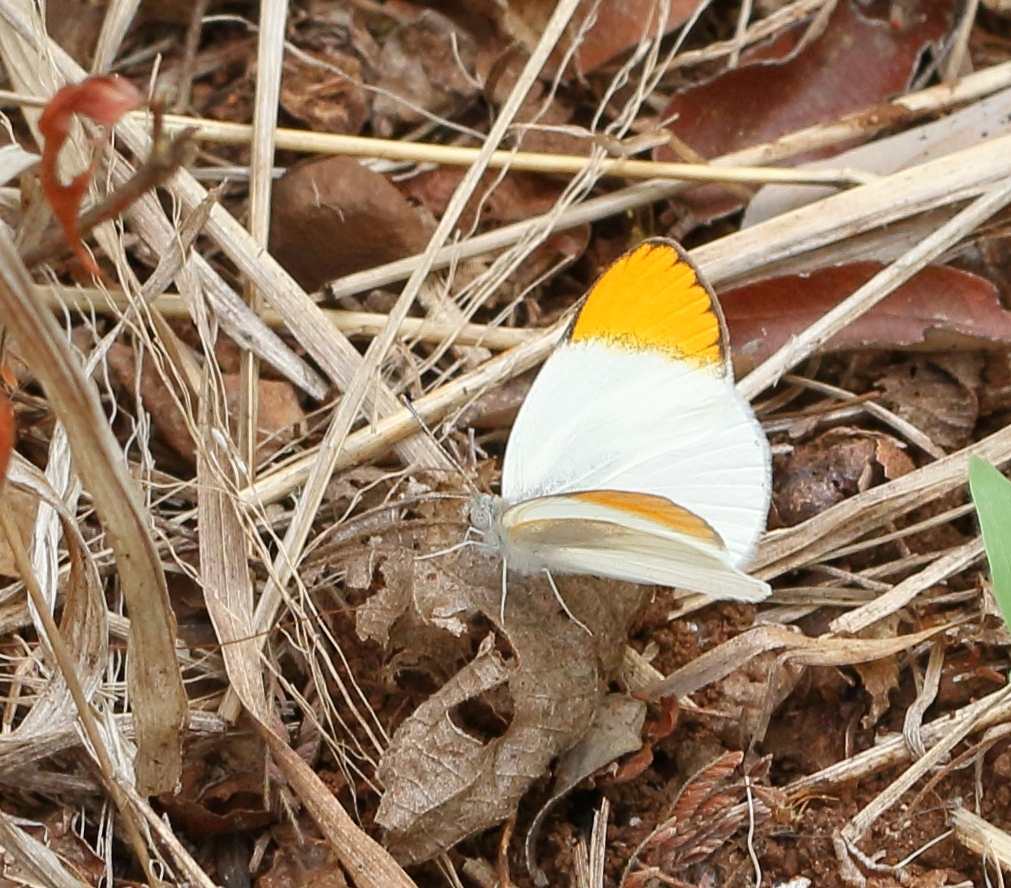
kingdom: Animalia
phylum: Arthropoda
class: Insecta
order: Lepidoptera
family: Pieridae
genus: Colotis
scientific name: Colotis evenina
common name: Common orange tip
